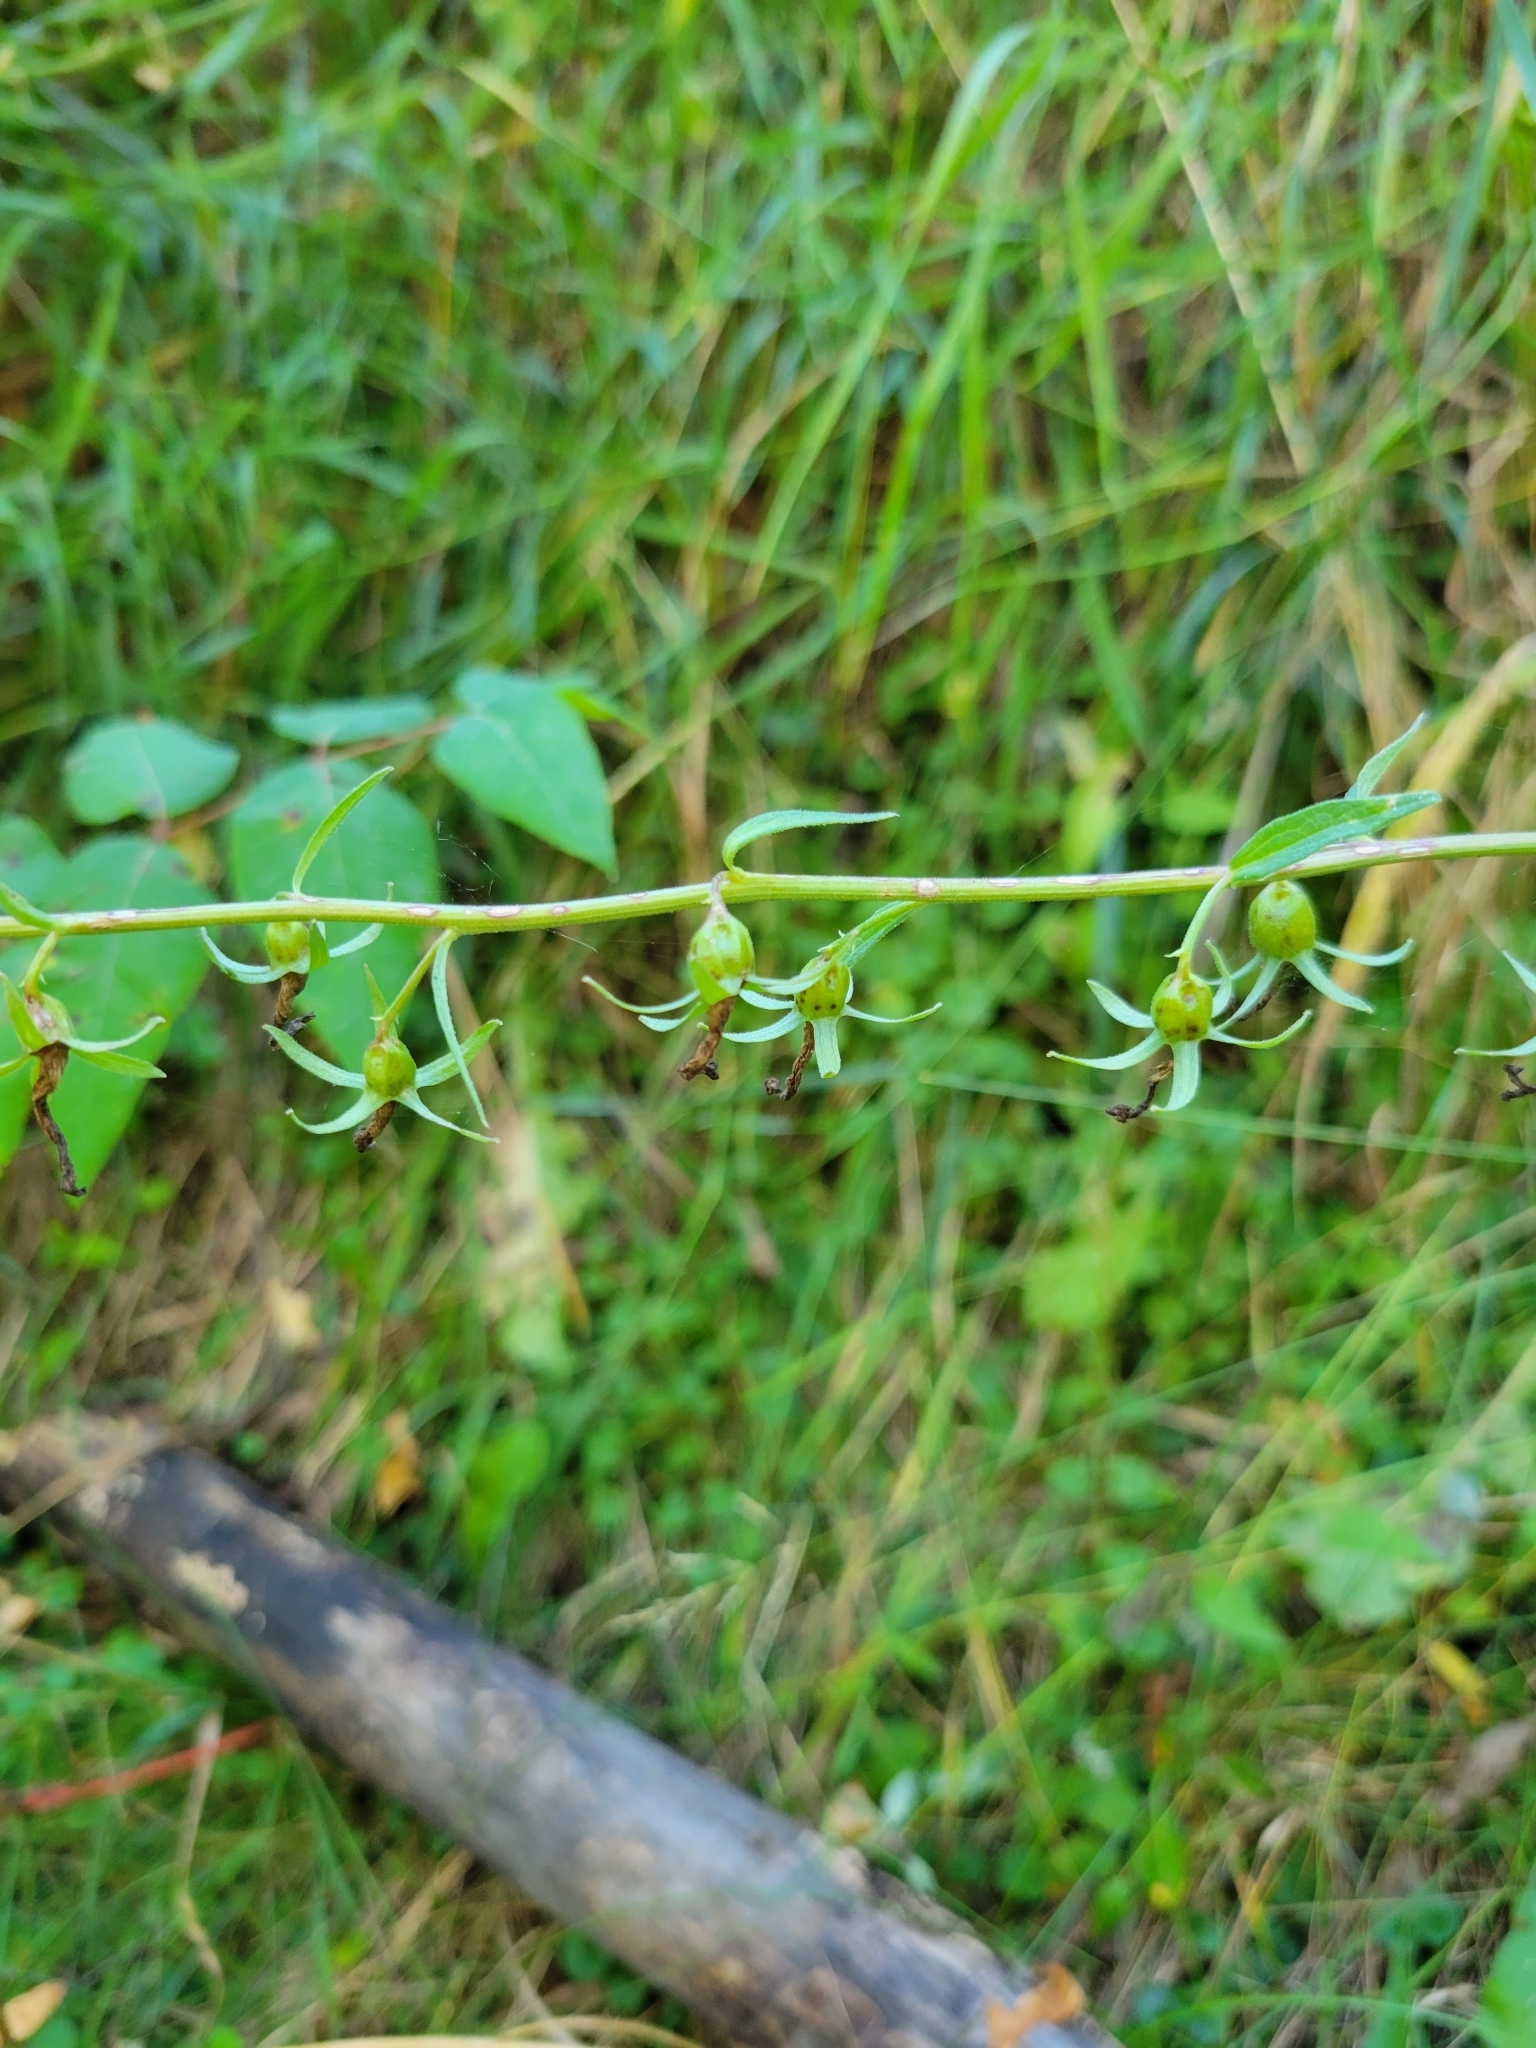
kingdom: Plantae
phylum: Tracheophyta
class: Magnoliopsida
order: Asterales
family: Campanulaceae
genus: Campanula
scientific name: Campanula rapunculoides
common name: Creeping bellflower
